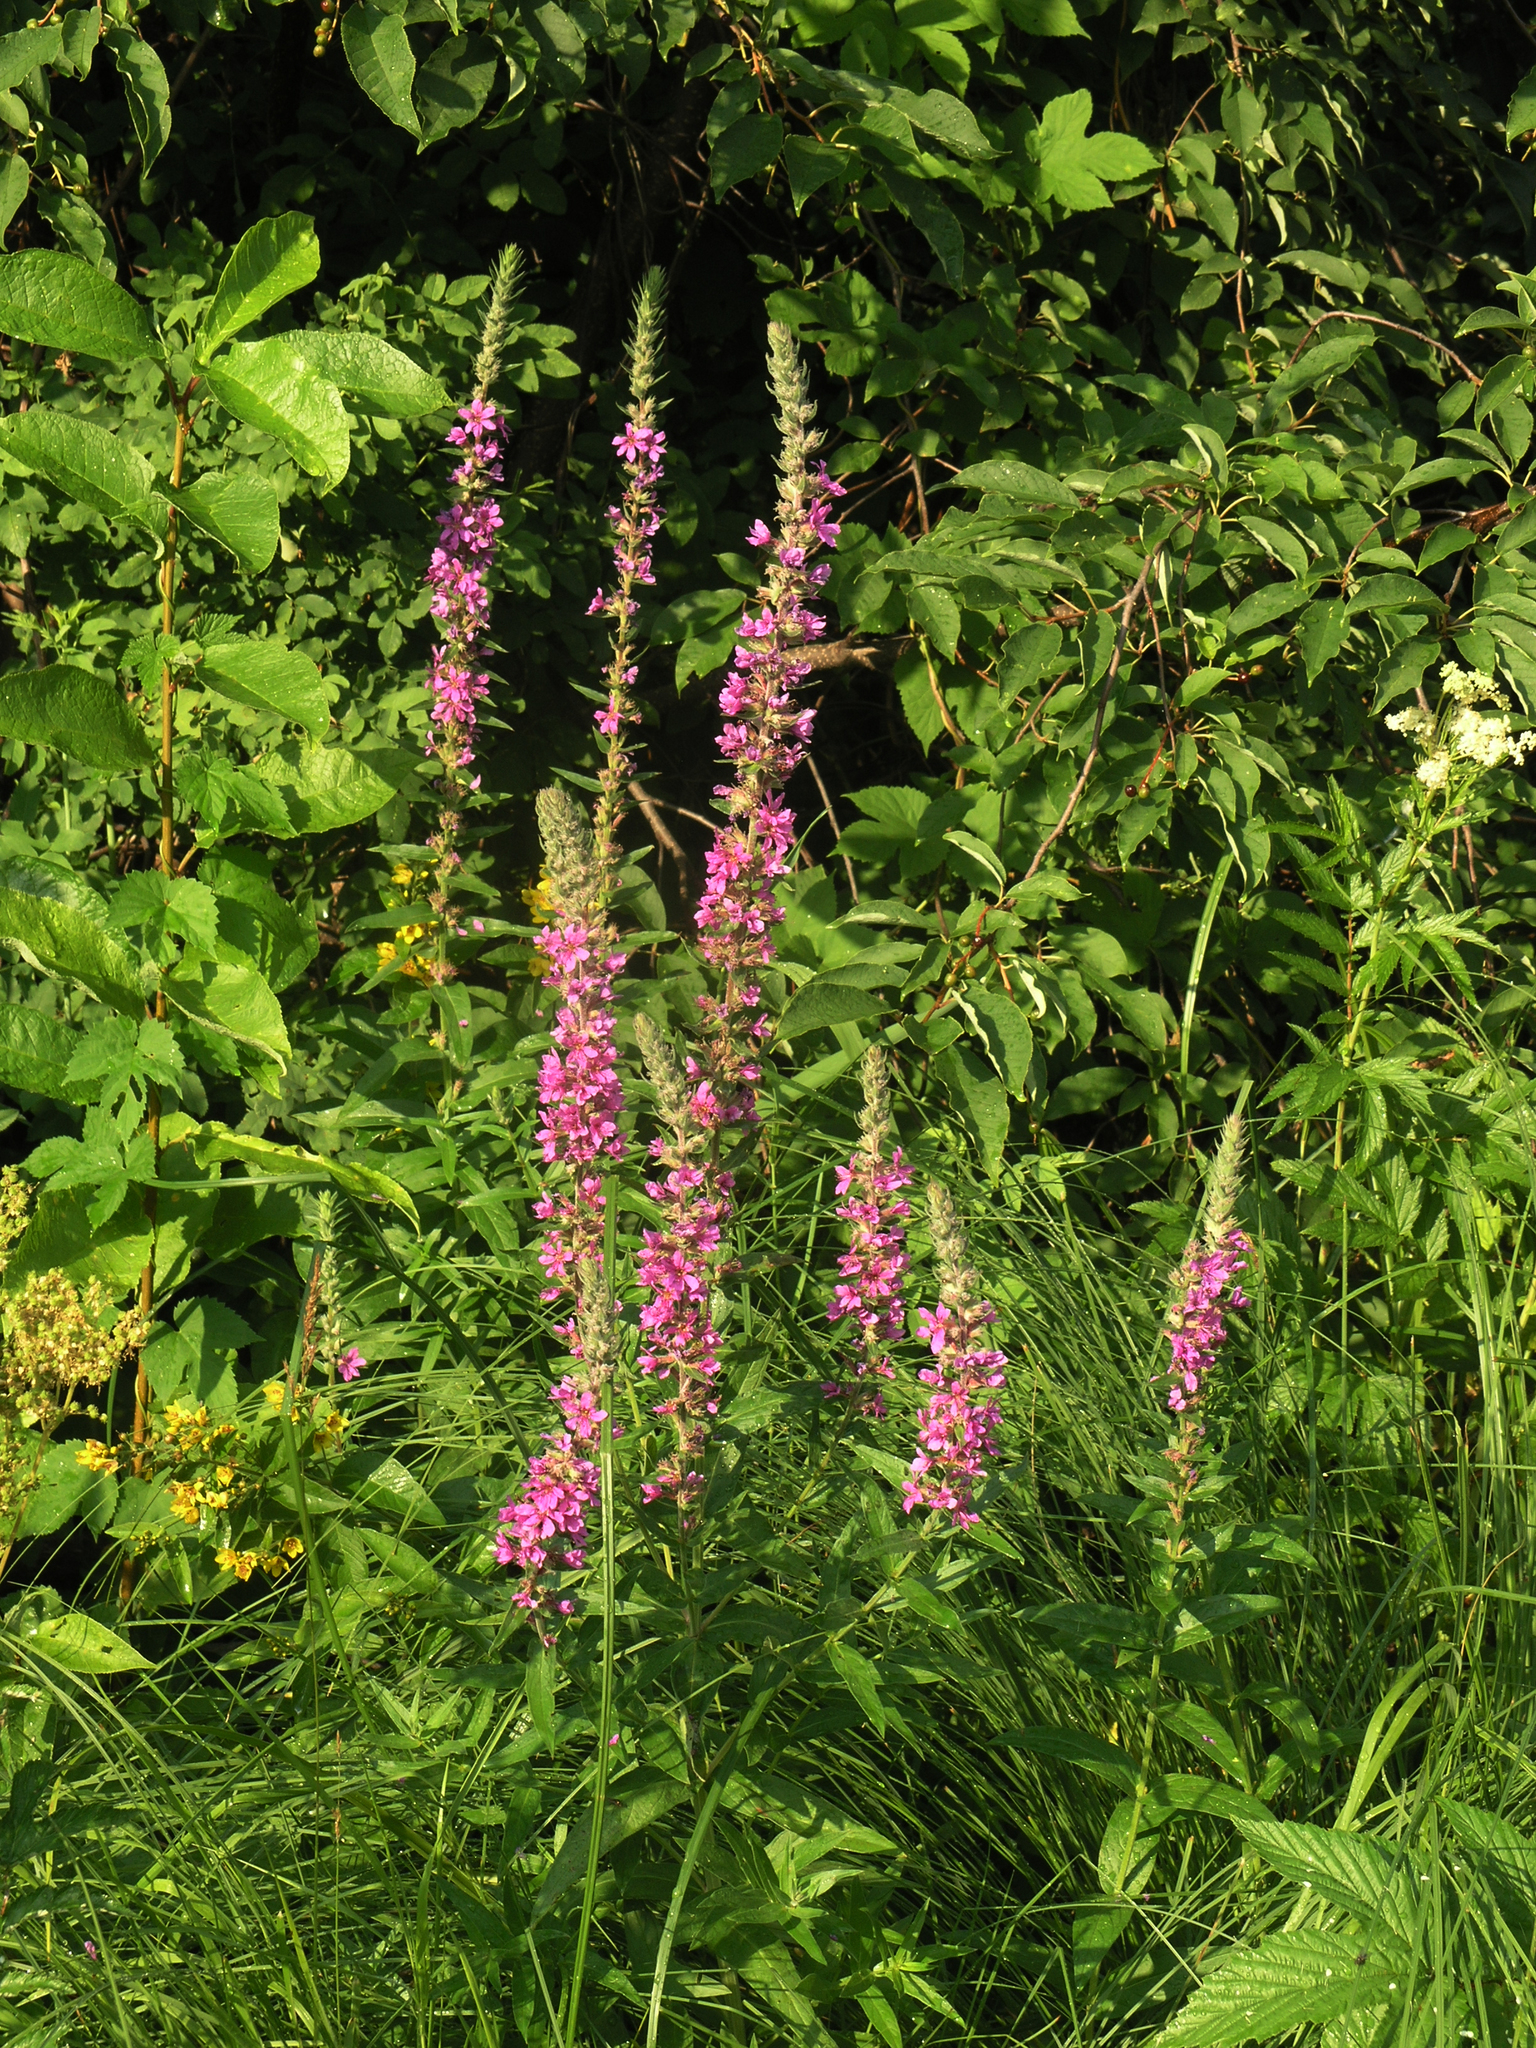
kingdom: Plantae
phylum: Tracheophyta
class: Magnoliopsida
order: Myrtales
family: Lythraceae
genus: Lythrum
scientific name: Lythrum salicaria
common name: Purple loosestrife
